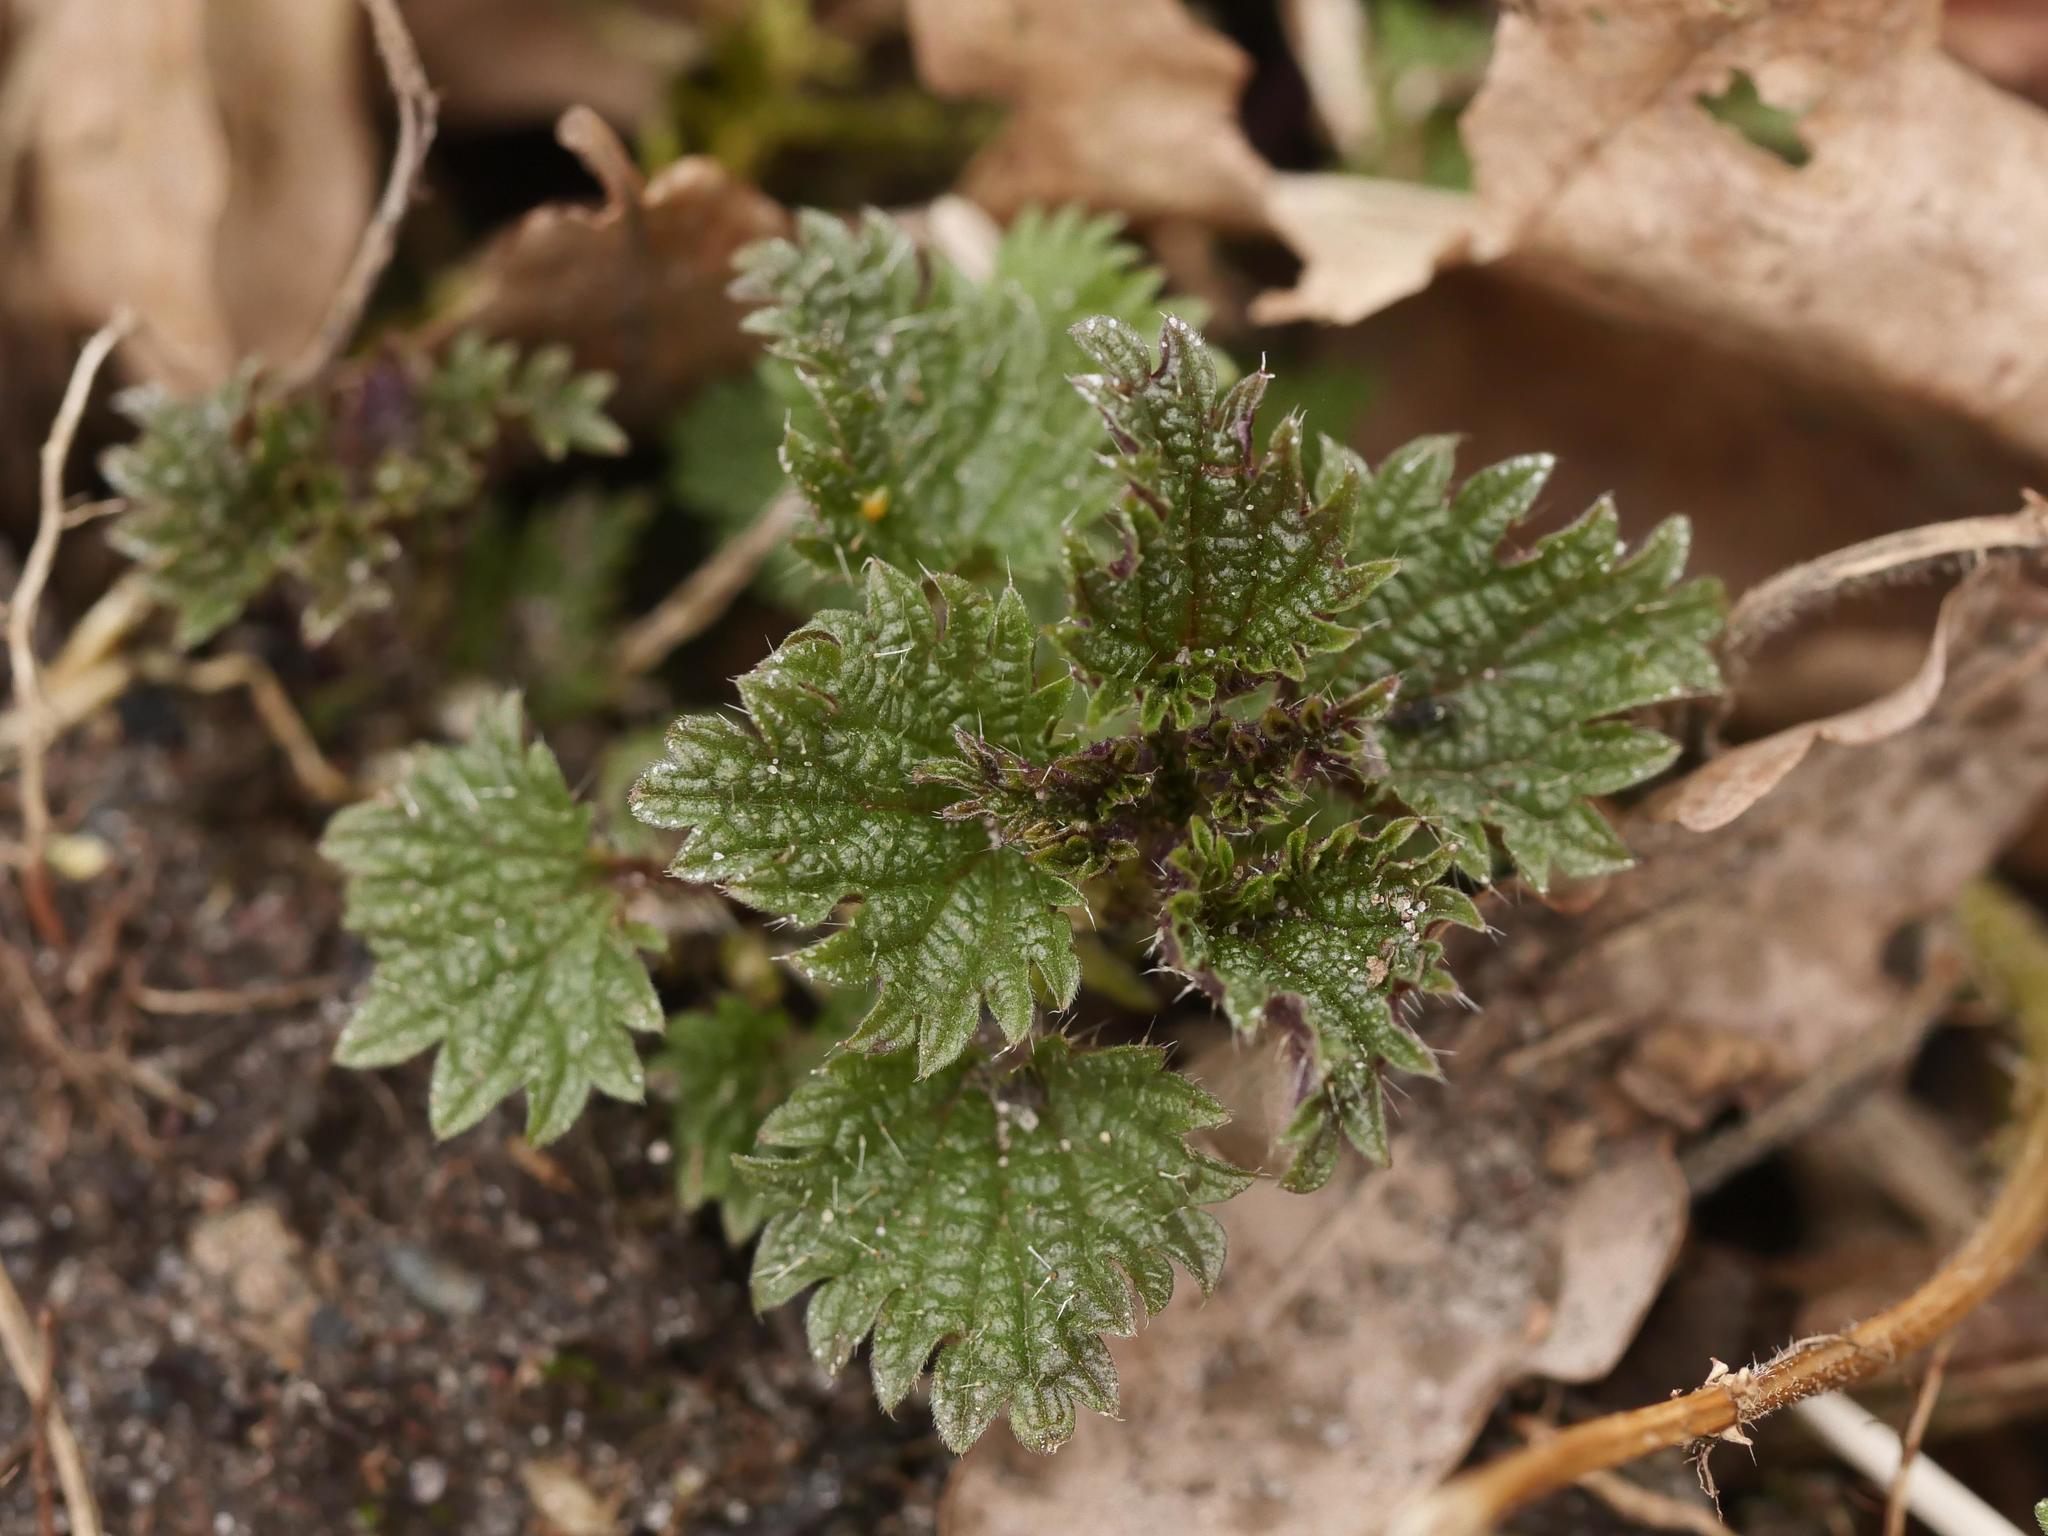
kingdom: Plantae
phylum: Tracheophyta
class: Magnoliopsida
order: Rosales
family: Urticaceae
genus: Urtica
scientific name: Urtica dioica
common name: Common nettle
